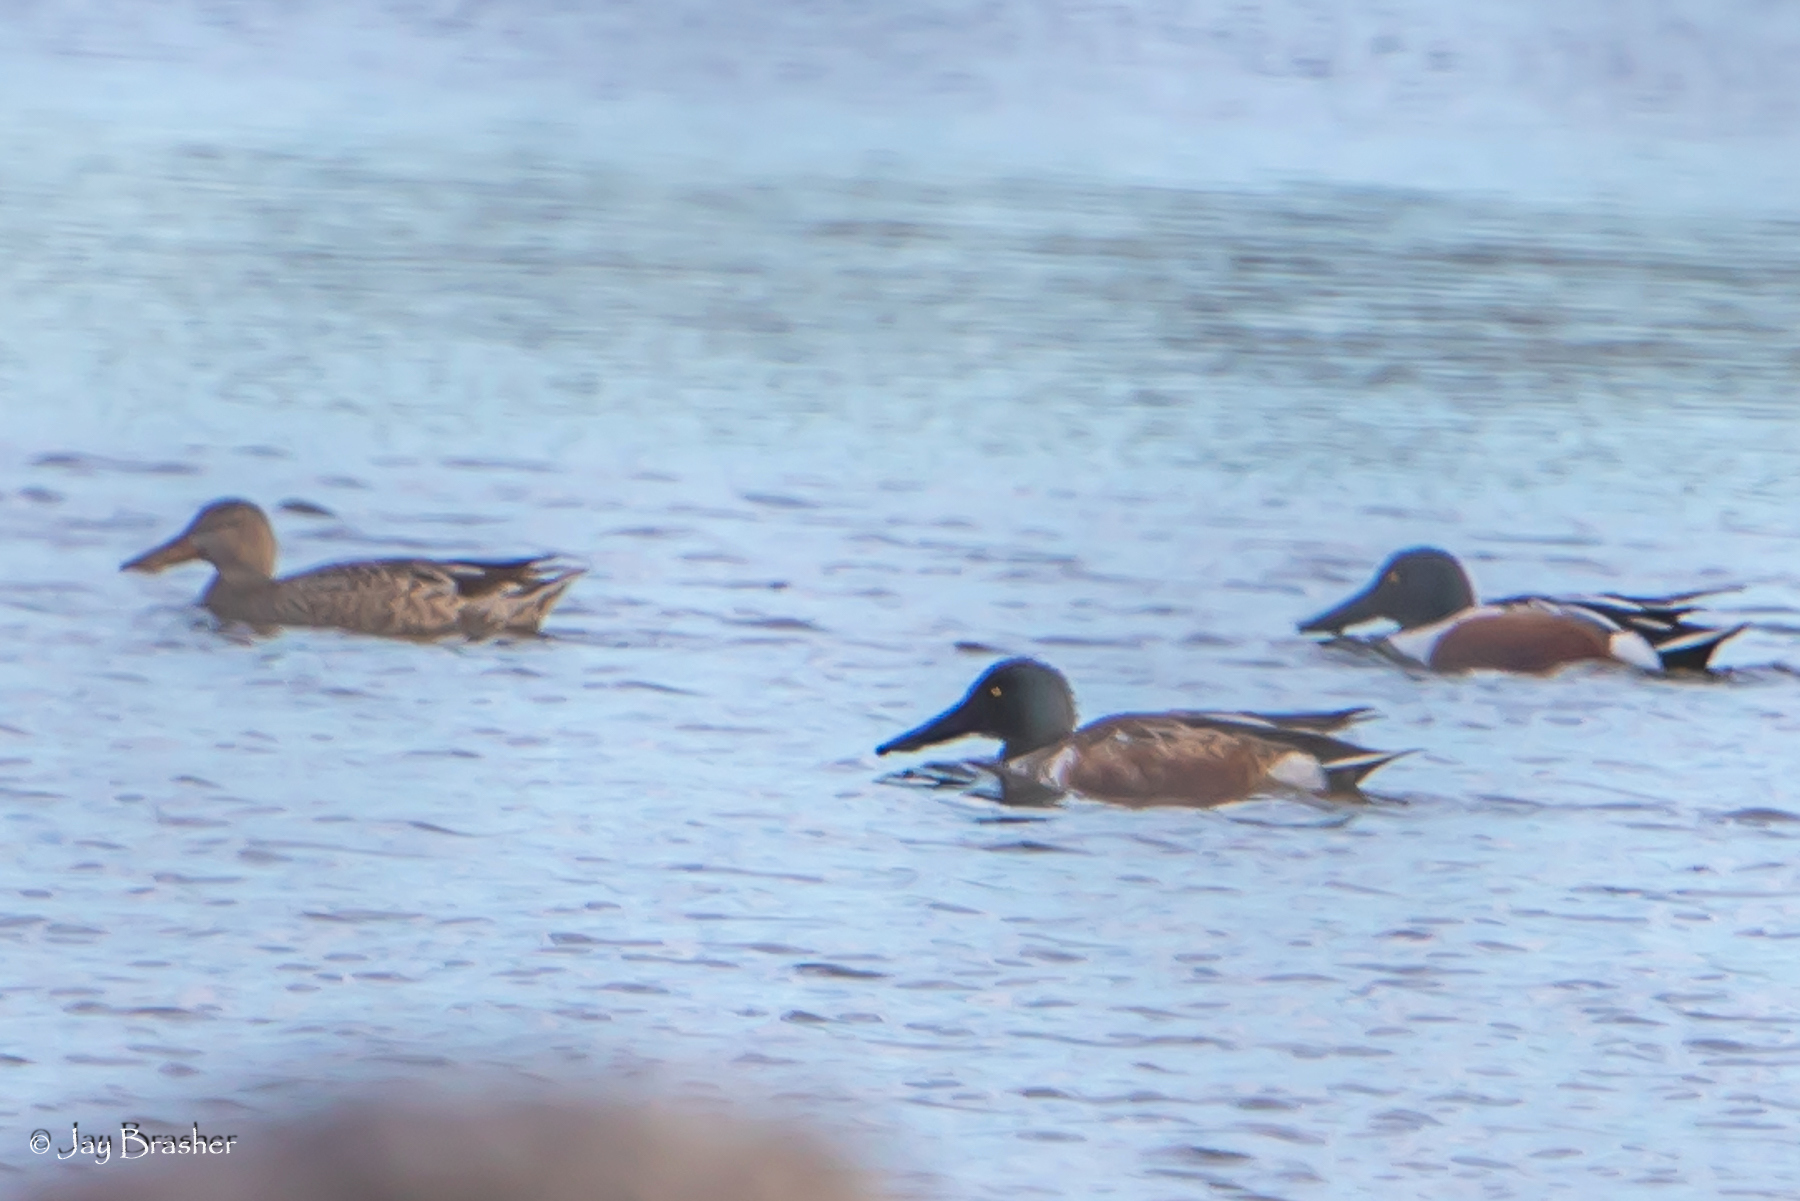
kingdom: Animalia
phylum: Chordata
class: Aves
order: Anseriformes
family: Anatidae
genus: Spatula
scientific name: Spatula clypeata
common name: Northern shoveler
